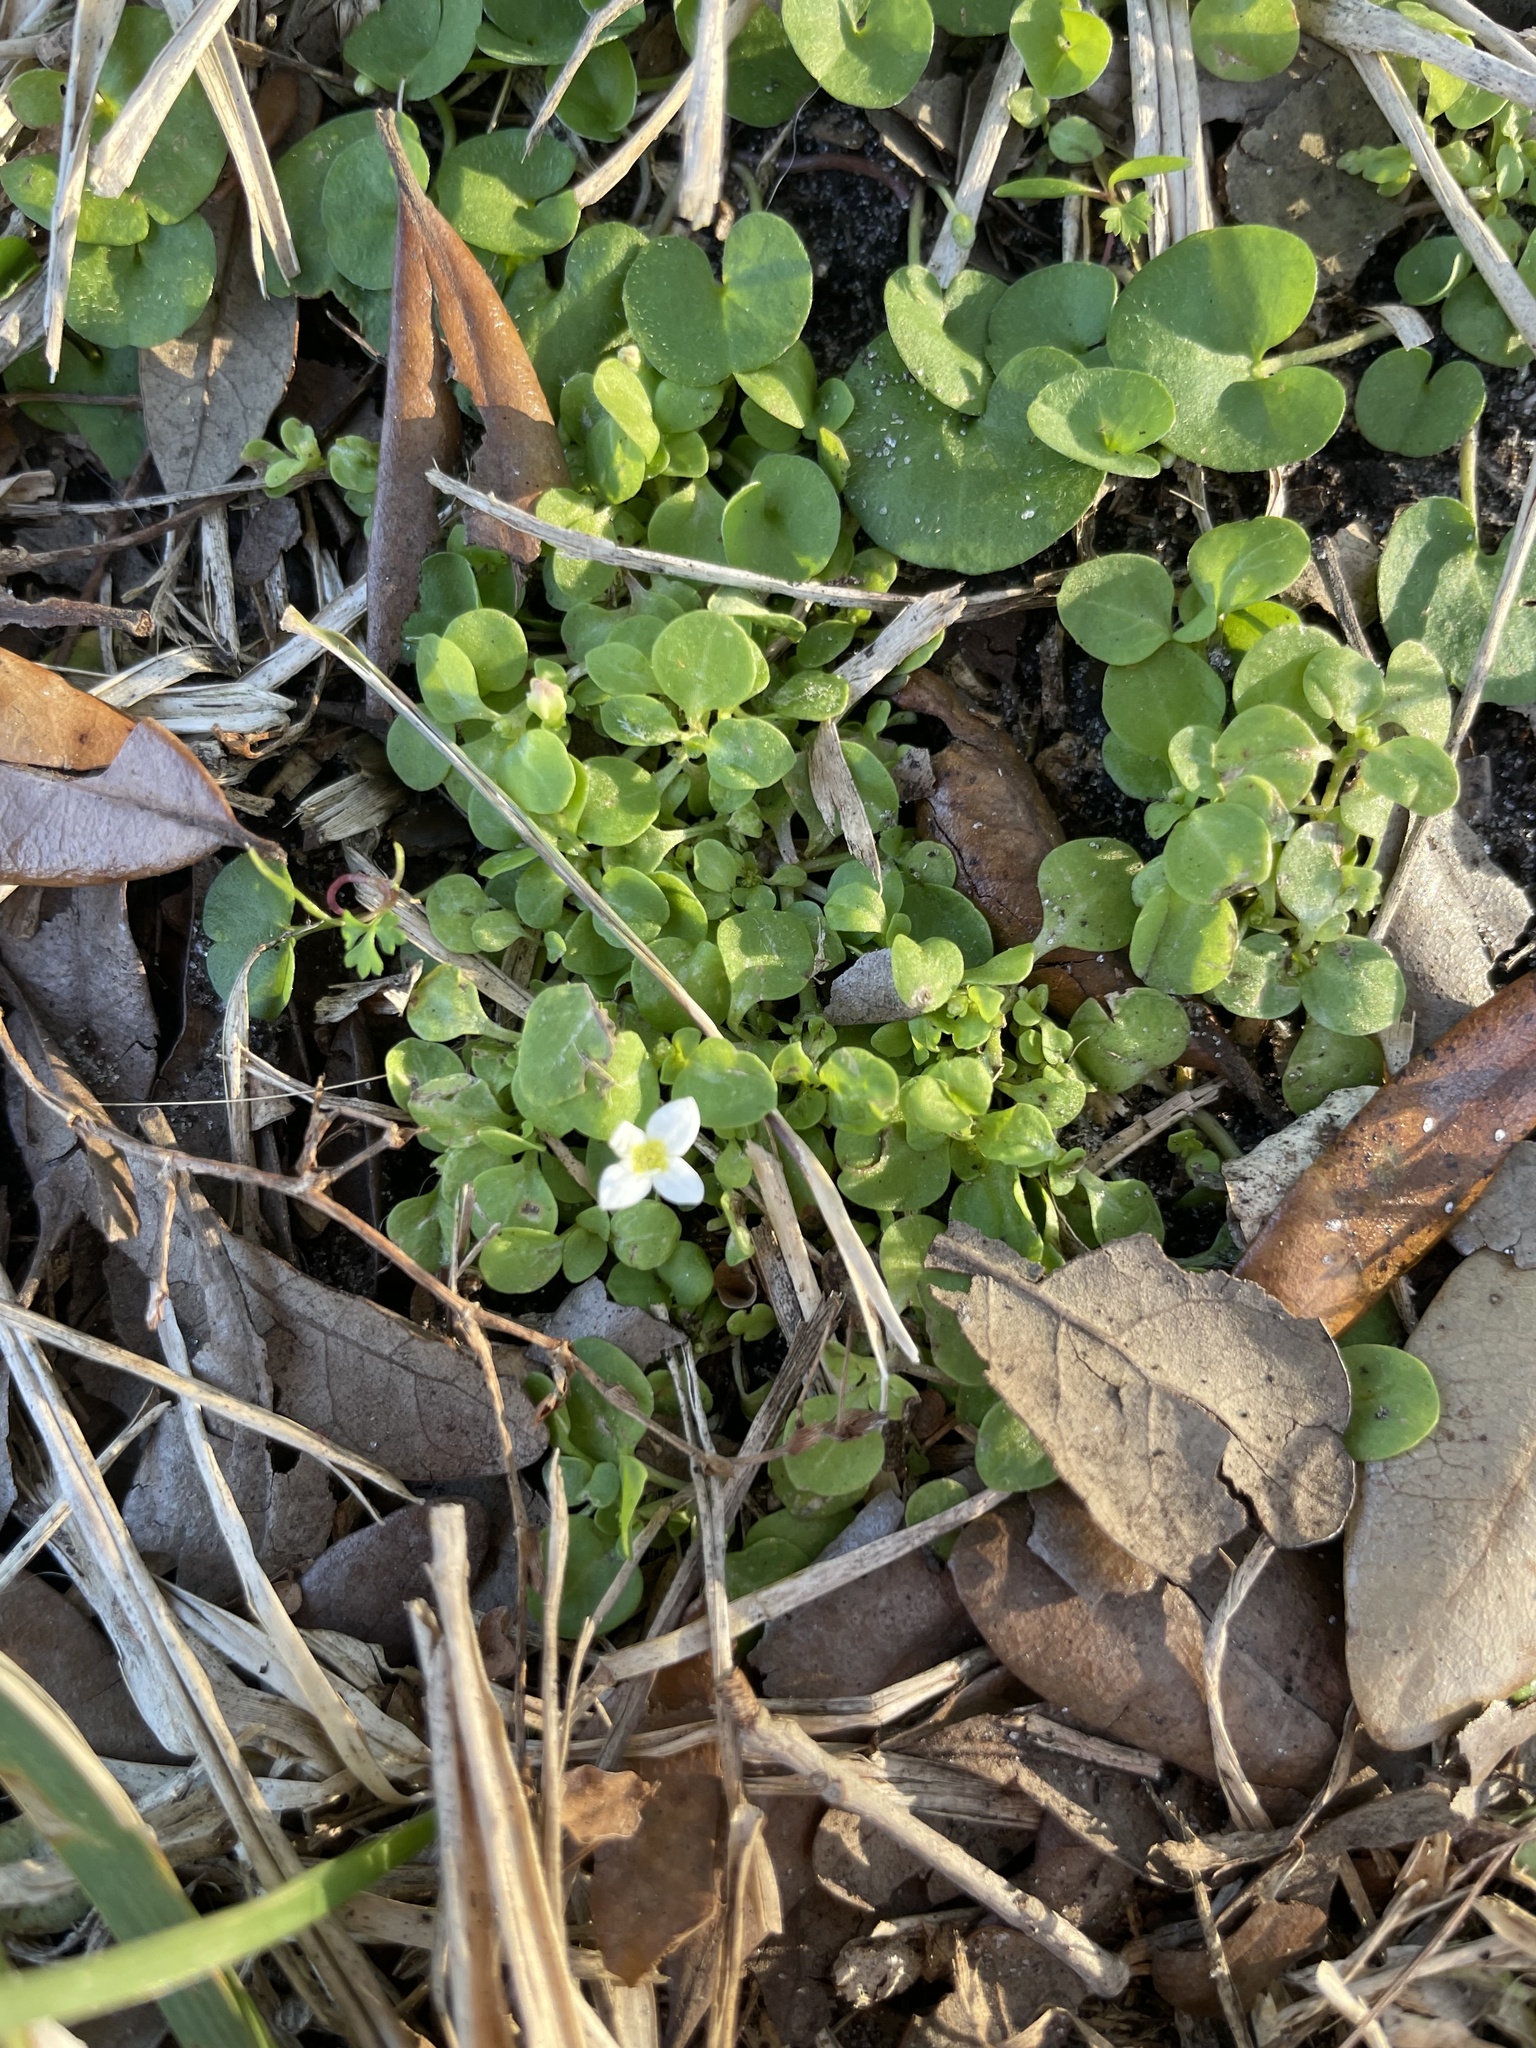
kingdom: Plantae
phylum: Tracheophyta
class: Magnoliopsida
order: Gentianales
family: Rubiaceae
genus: Houstonia
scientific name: Houstonia procumbens
